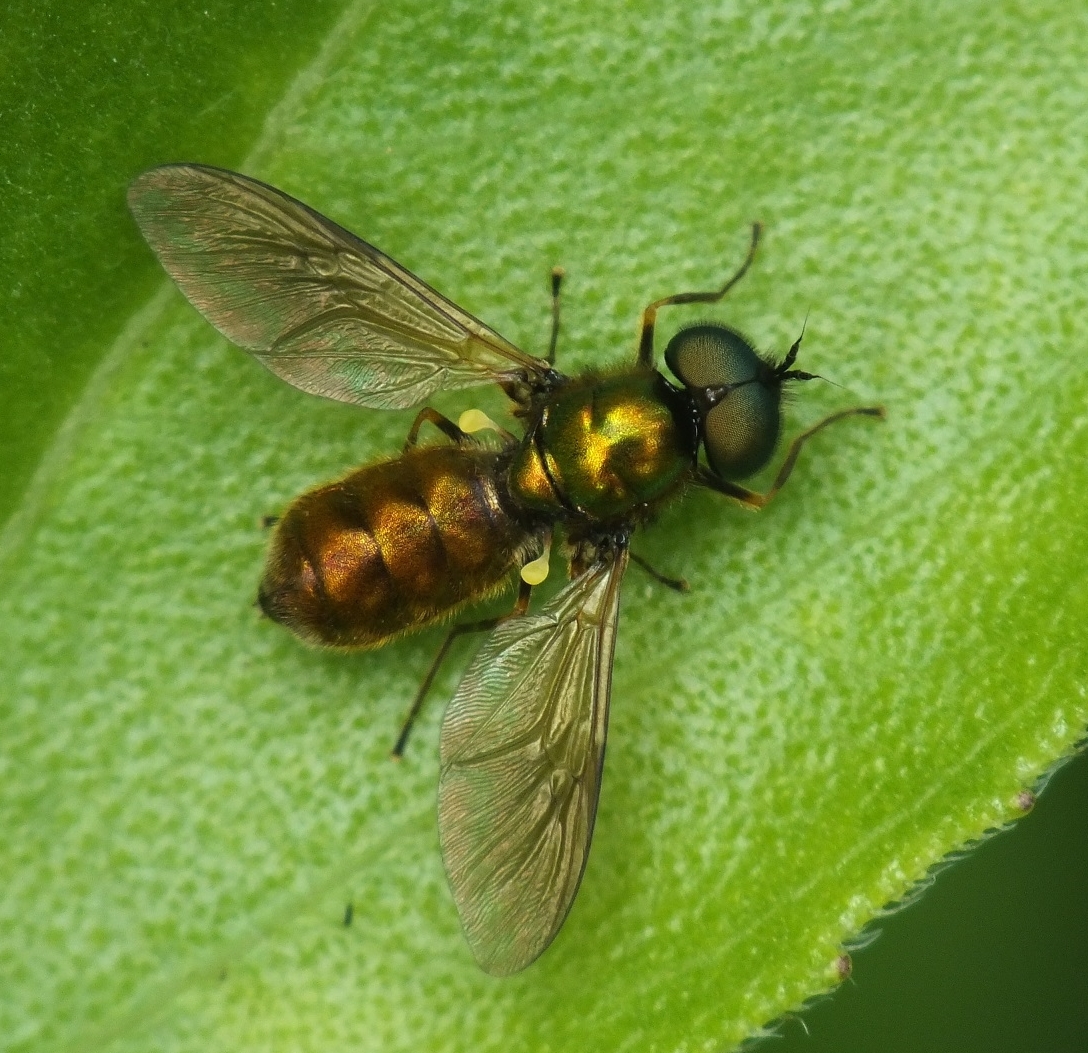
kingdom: Animalia
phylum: Arthropoda
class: Insecta
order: Diptera
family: Stratiomyidae
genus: Chloromyia
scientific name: Chloromyia formosa
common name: Soldier fly
